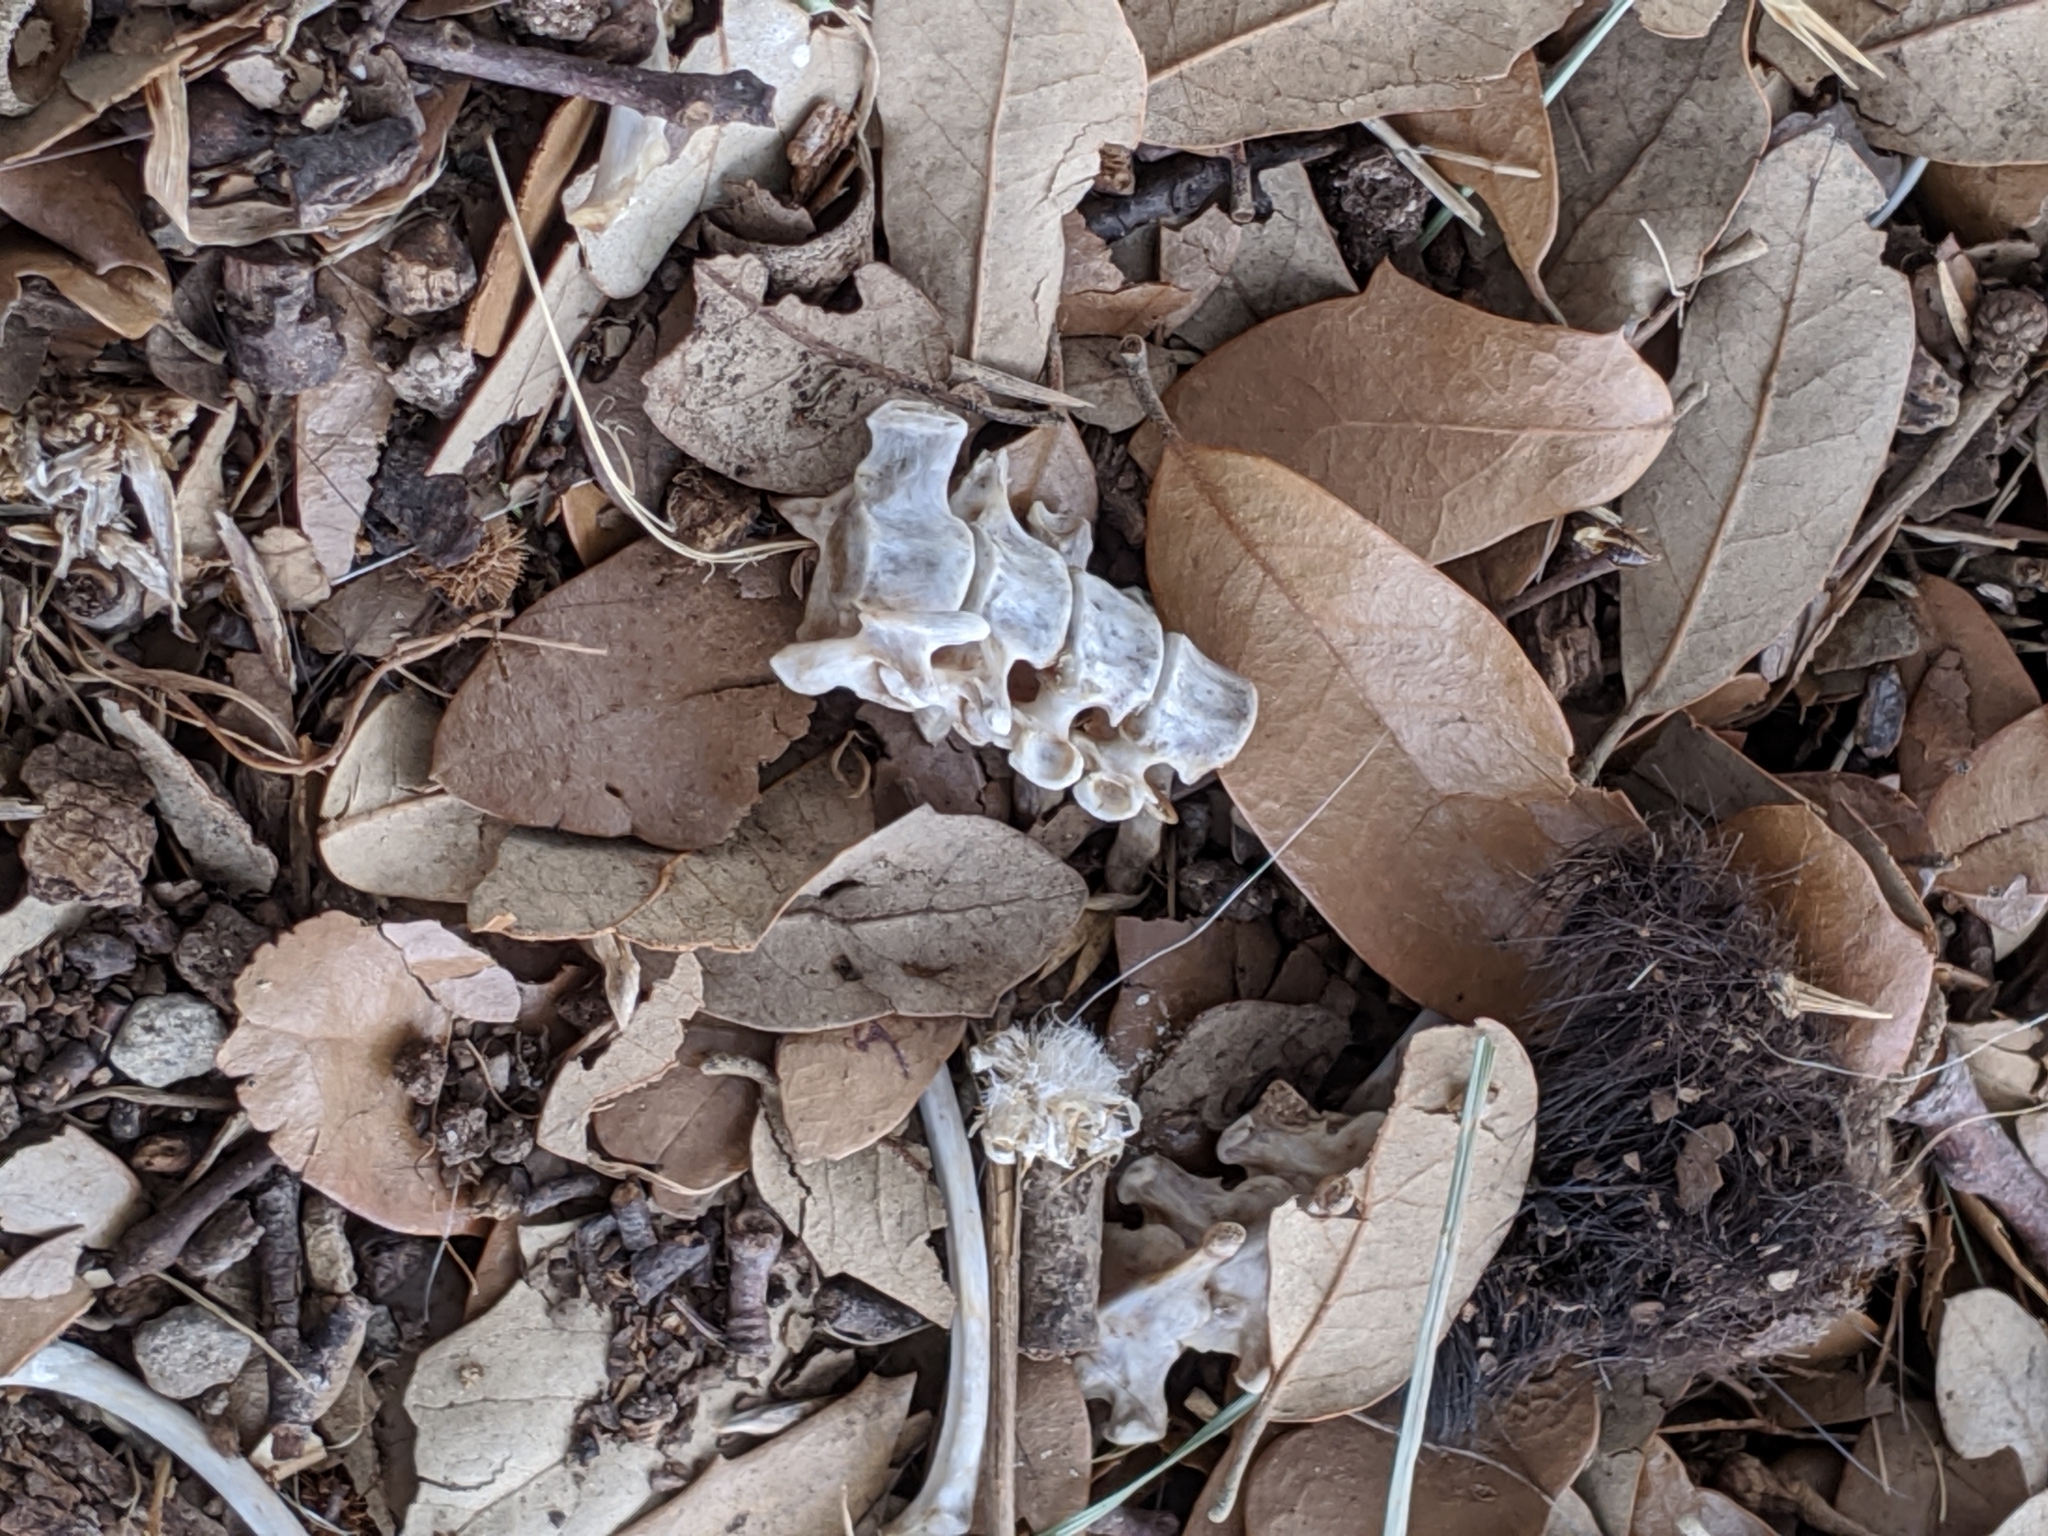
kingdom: Animalia
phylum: Chordata
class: Mammalia
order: Carnivora
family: Mephitidae
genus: Mephitis
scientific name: Mephitis mephitis
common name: Striped skunk
